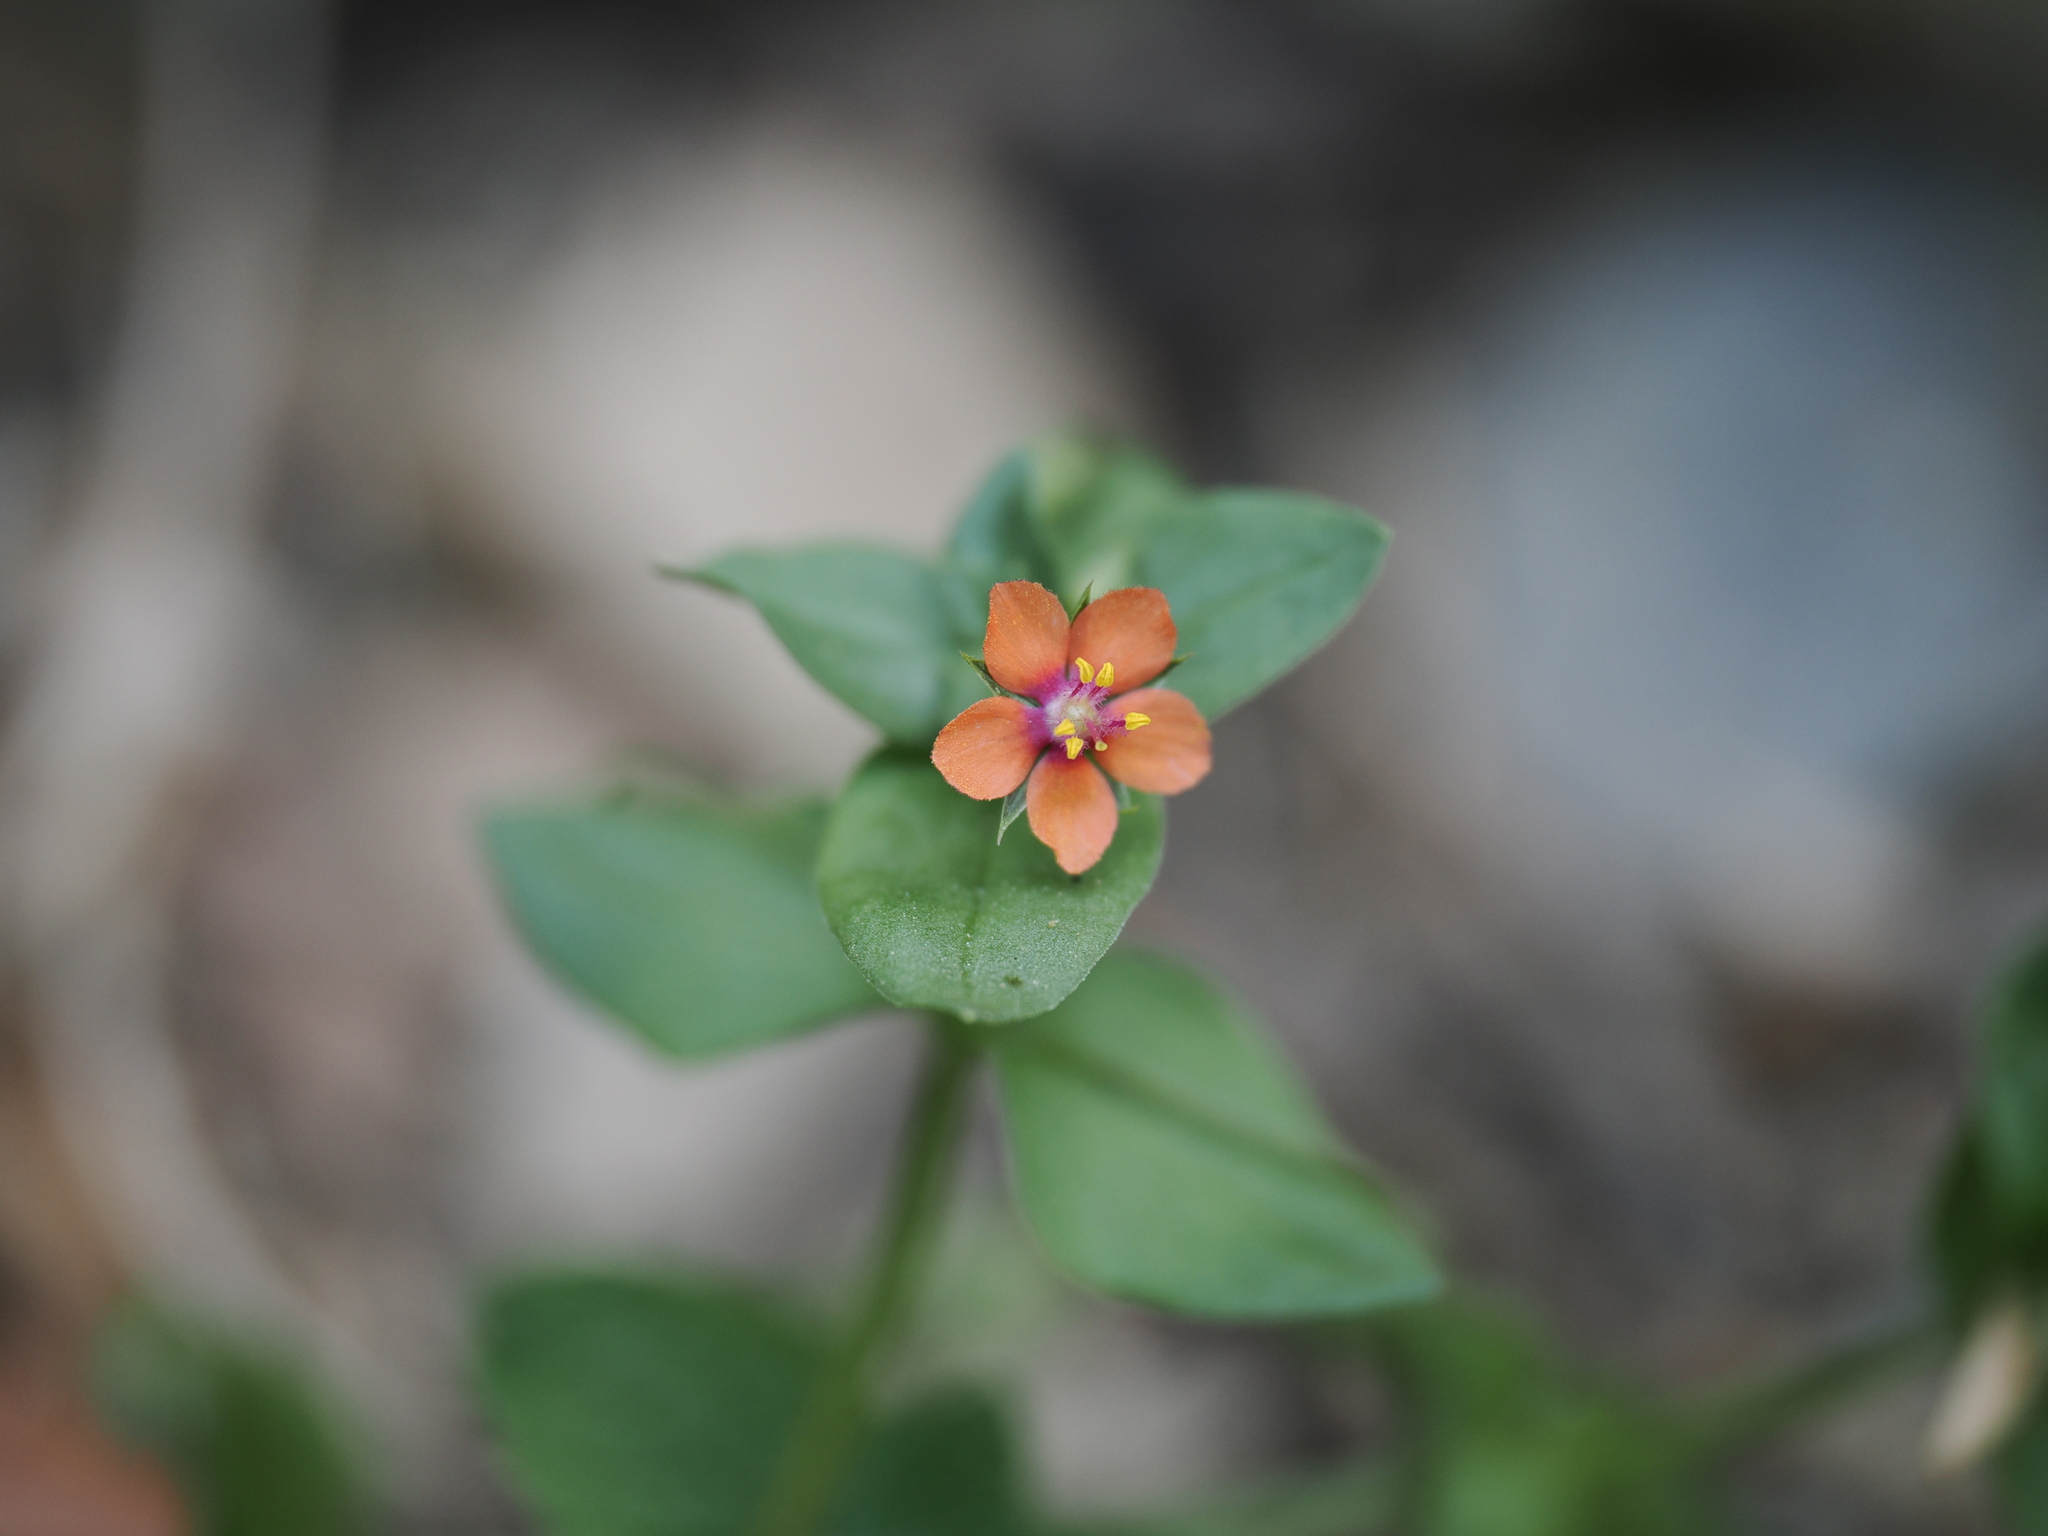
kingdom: Plantae
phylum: Tracheophyta
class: Magnoliopsida
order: Ericales
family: Primulaceae
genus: Lysimachia
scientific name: Lysimachia arvensis
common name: Scarlet pimpernel
